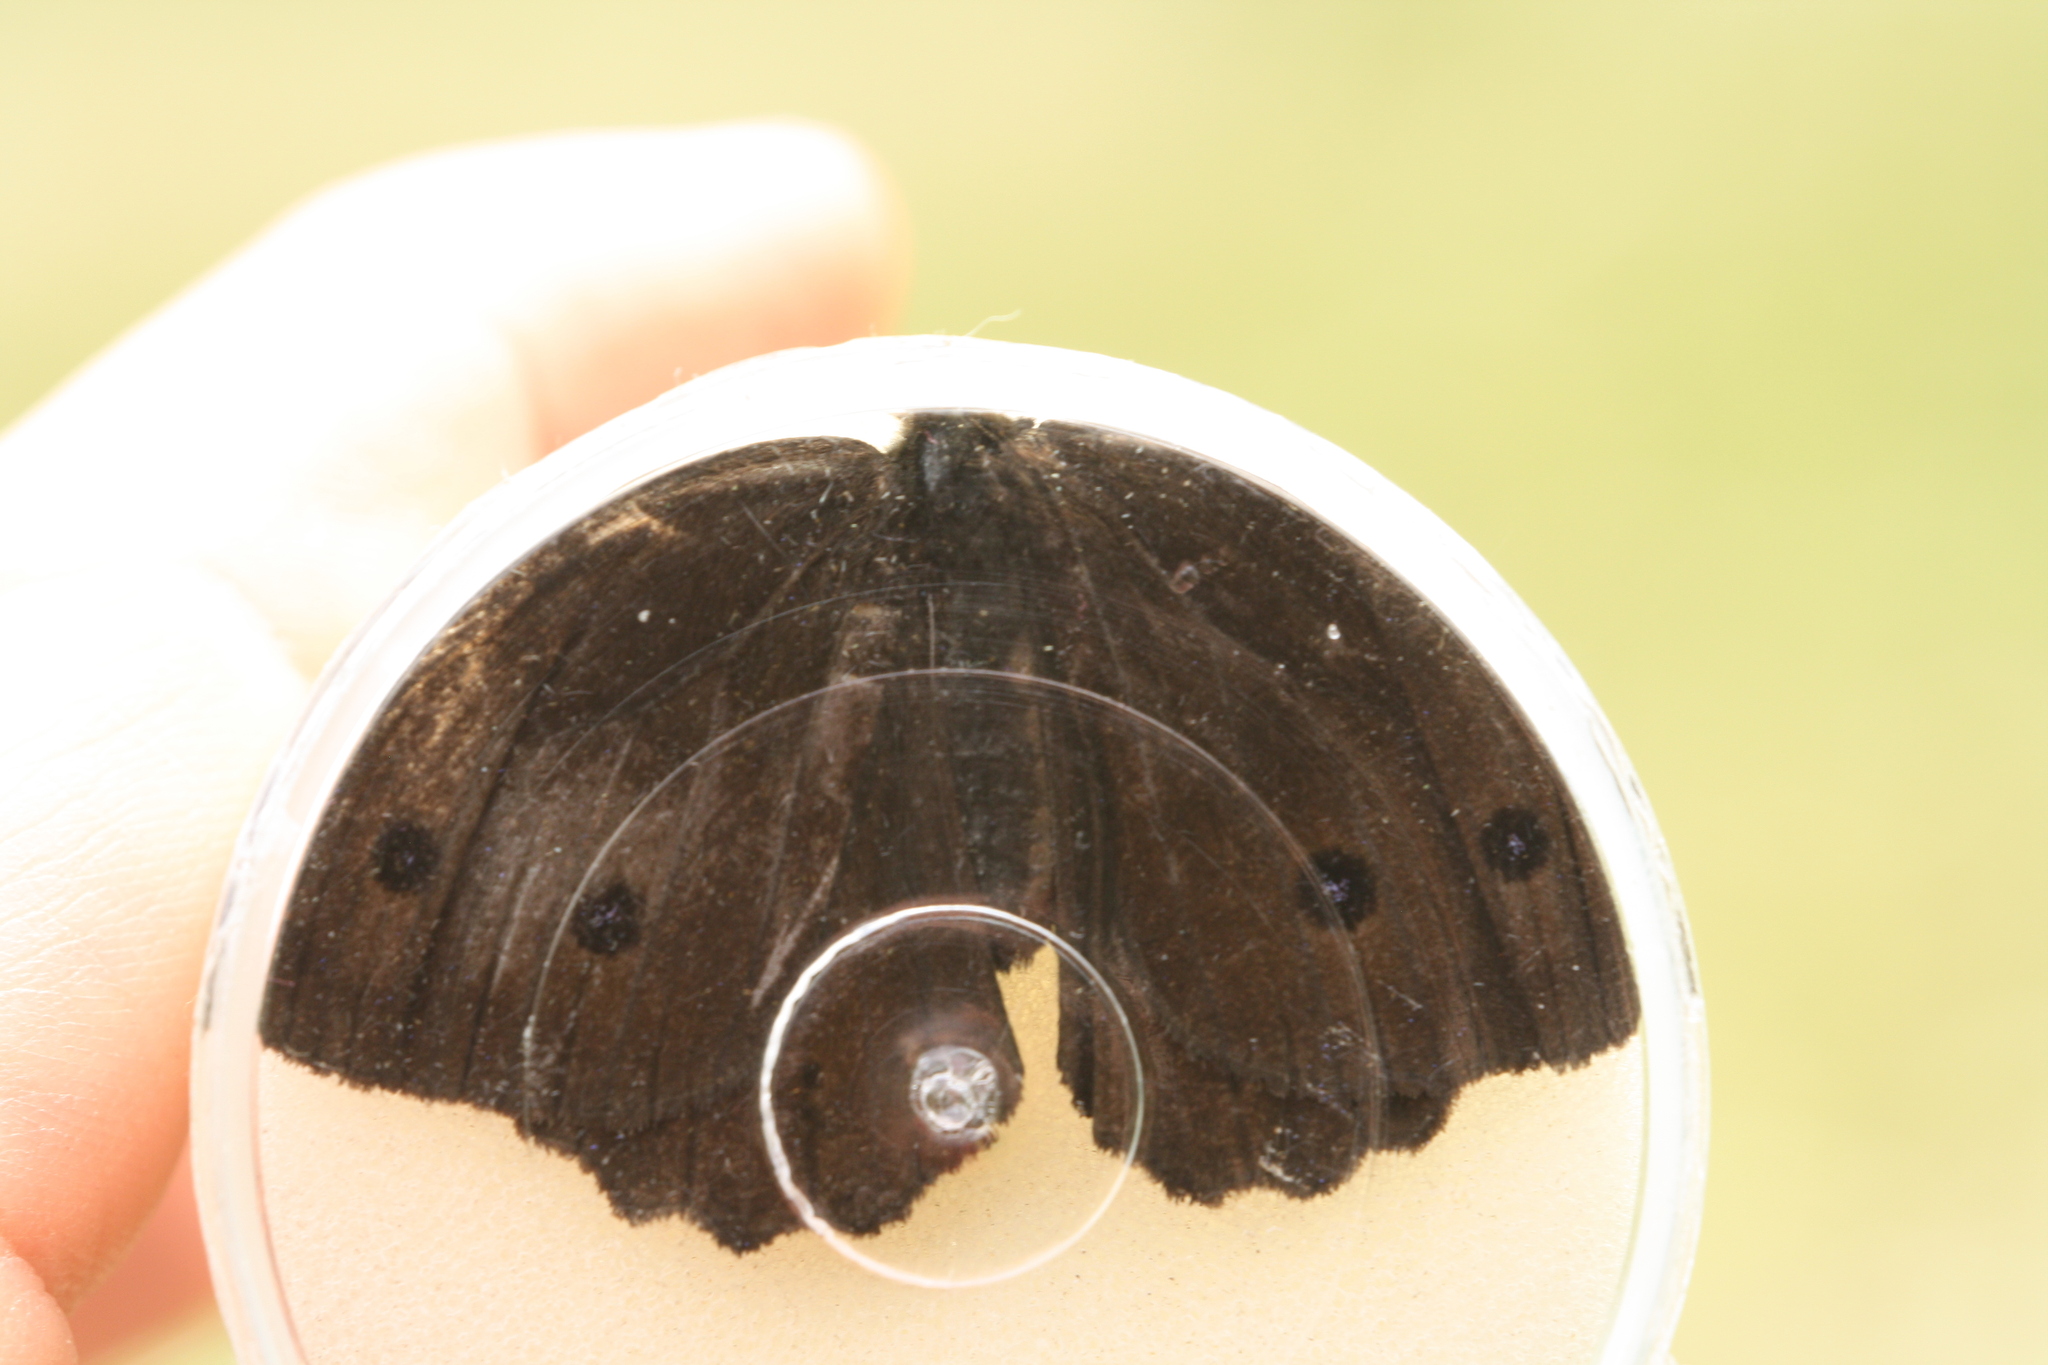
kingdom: Animalia
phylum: Arthropoda
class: Insecta
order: Lepidoptera
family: Nymphalidae
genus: Minois
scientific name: Minois dryas
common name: Dryad
